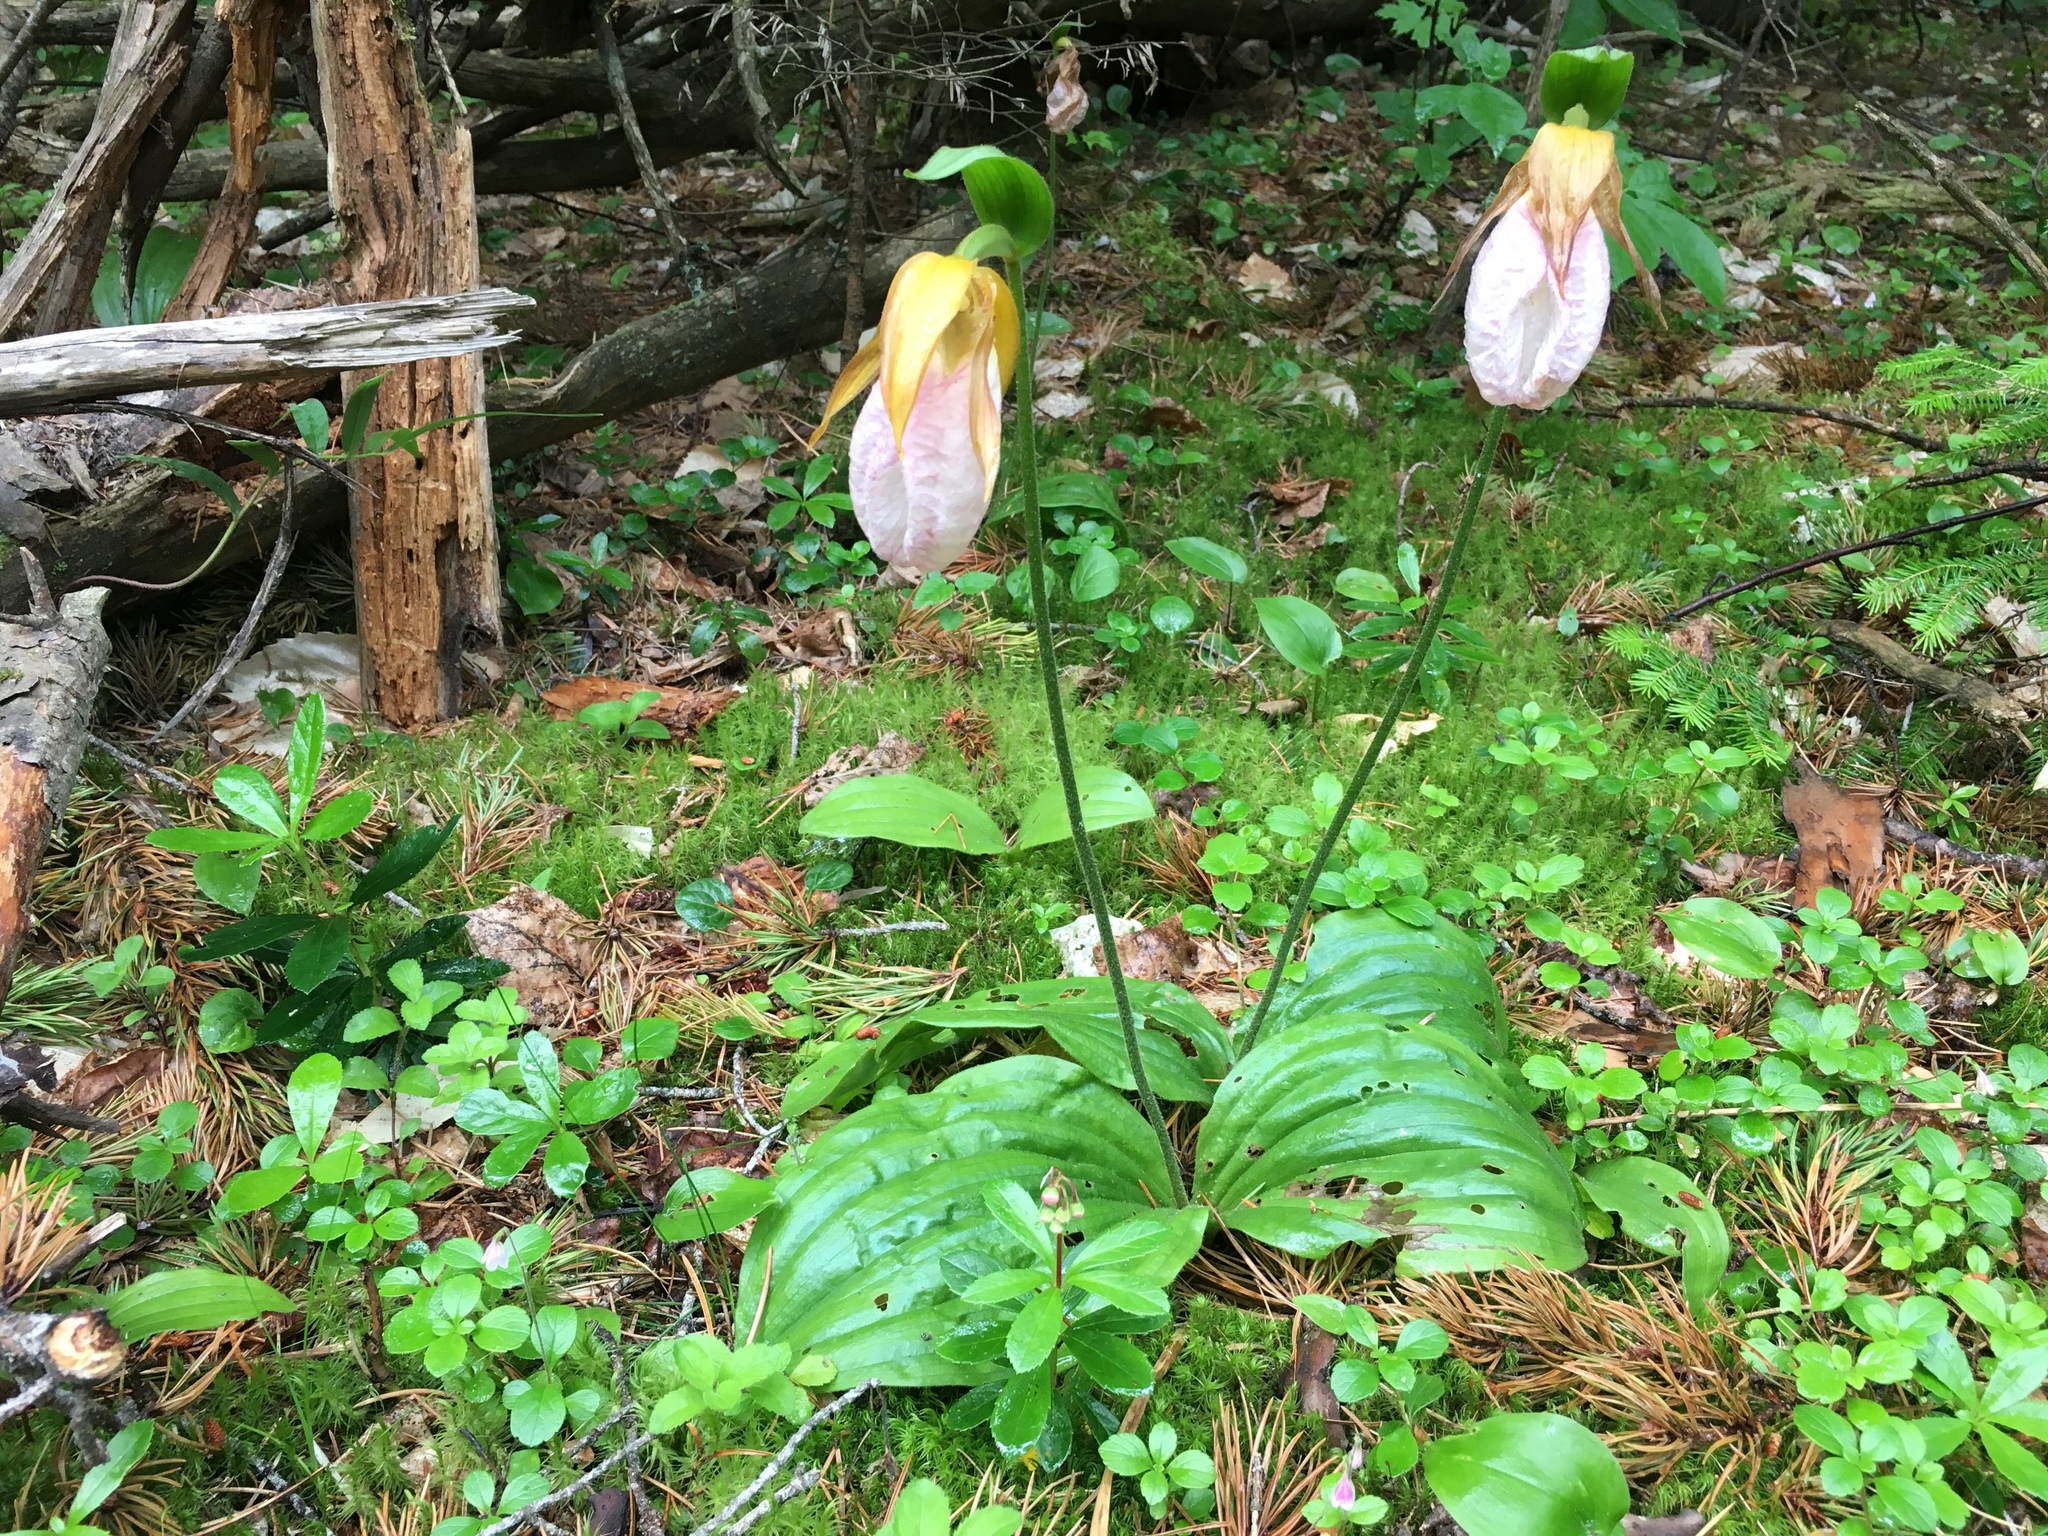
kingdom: Plantae
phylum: Tracheophyta
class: Liliopsida
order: Asparagales
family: Orchidaceae
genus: Cypripedium
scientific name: Cypripedium acaule
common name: Pink lady's-slipper
